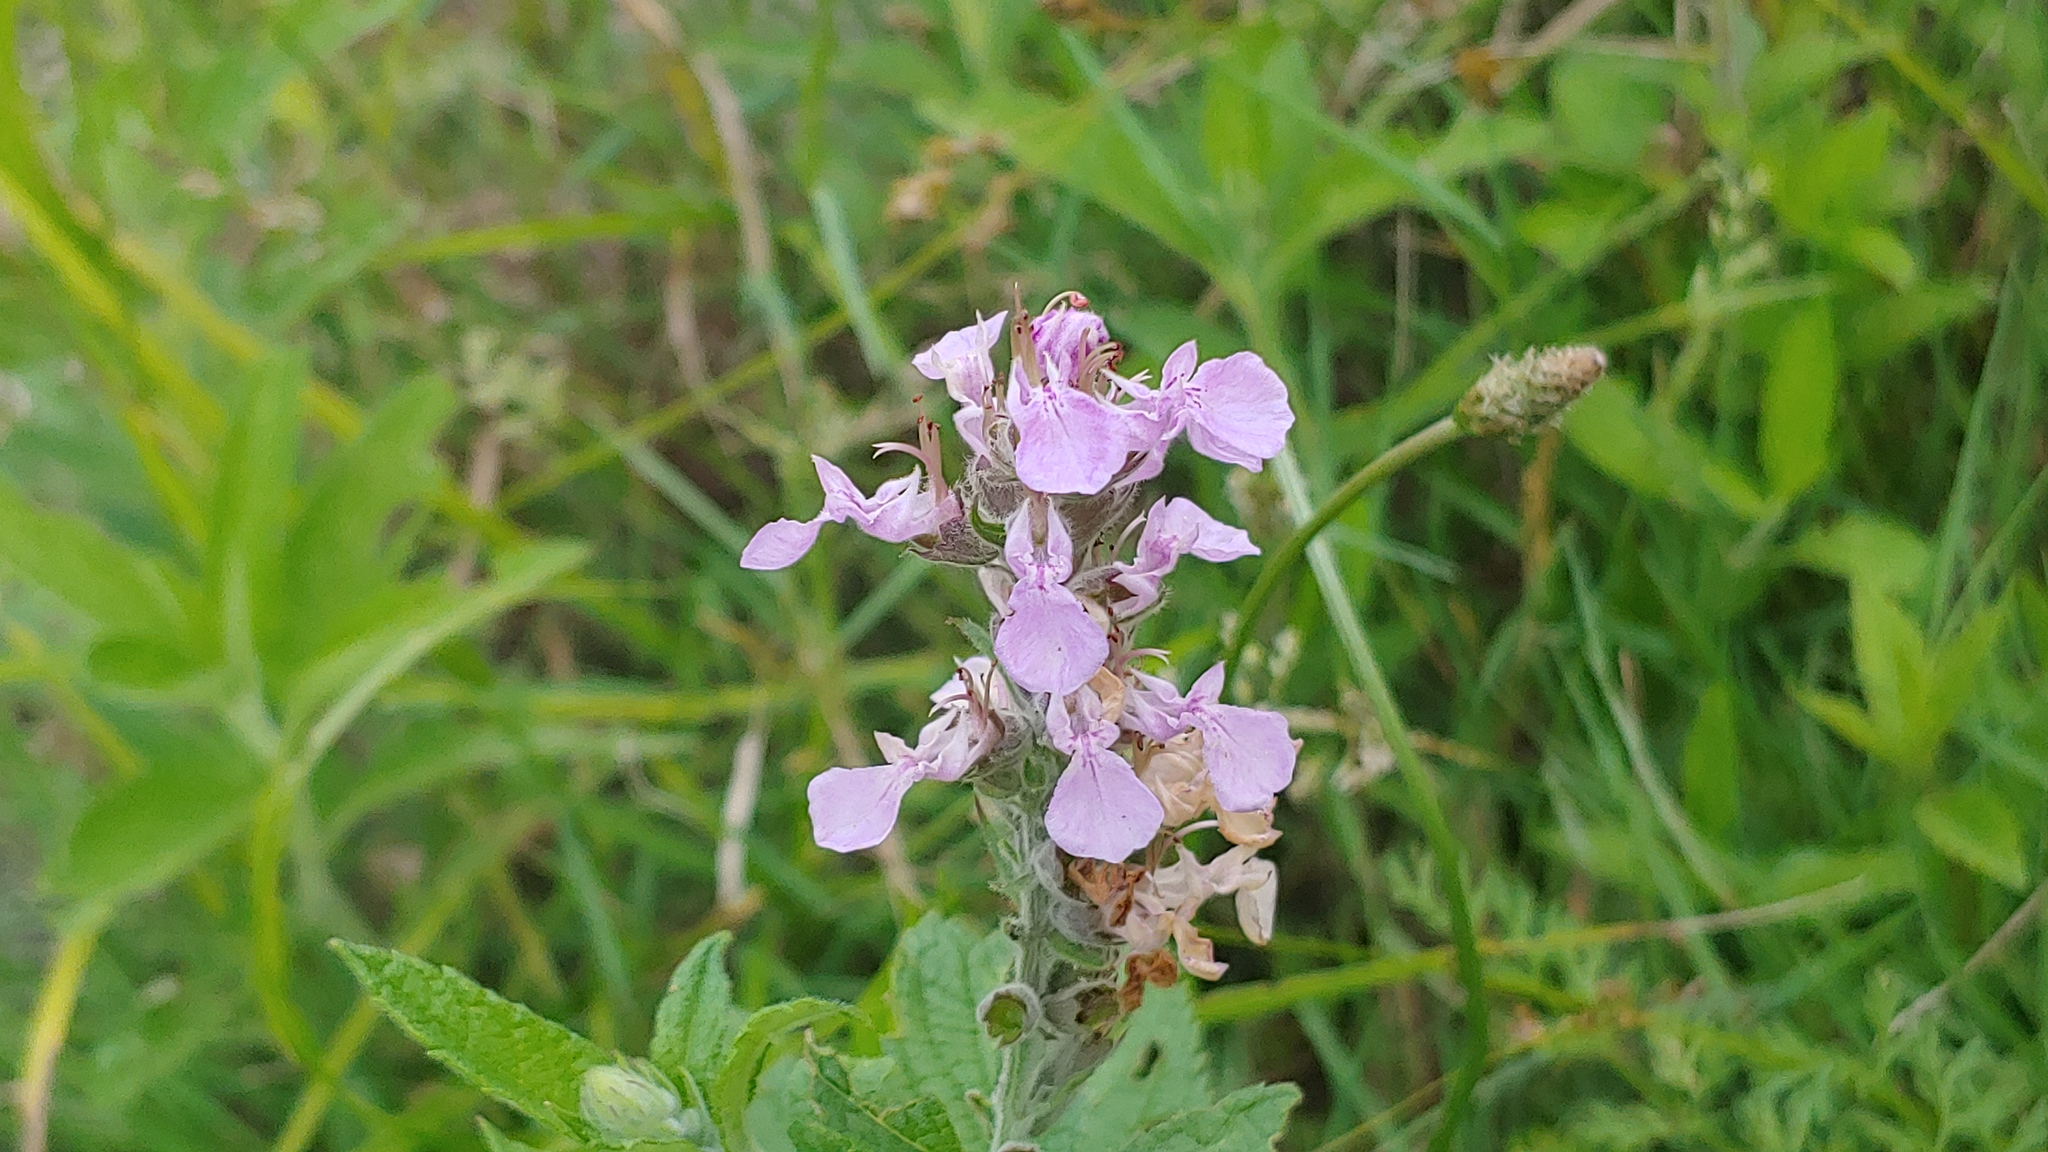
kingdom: Plantae
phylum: Tracheophyta
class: Magnoliopsida
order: Lamiales
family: Lamiaceae
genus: Teucrium
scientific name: Teucrium canadense
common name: American germander
